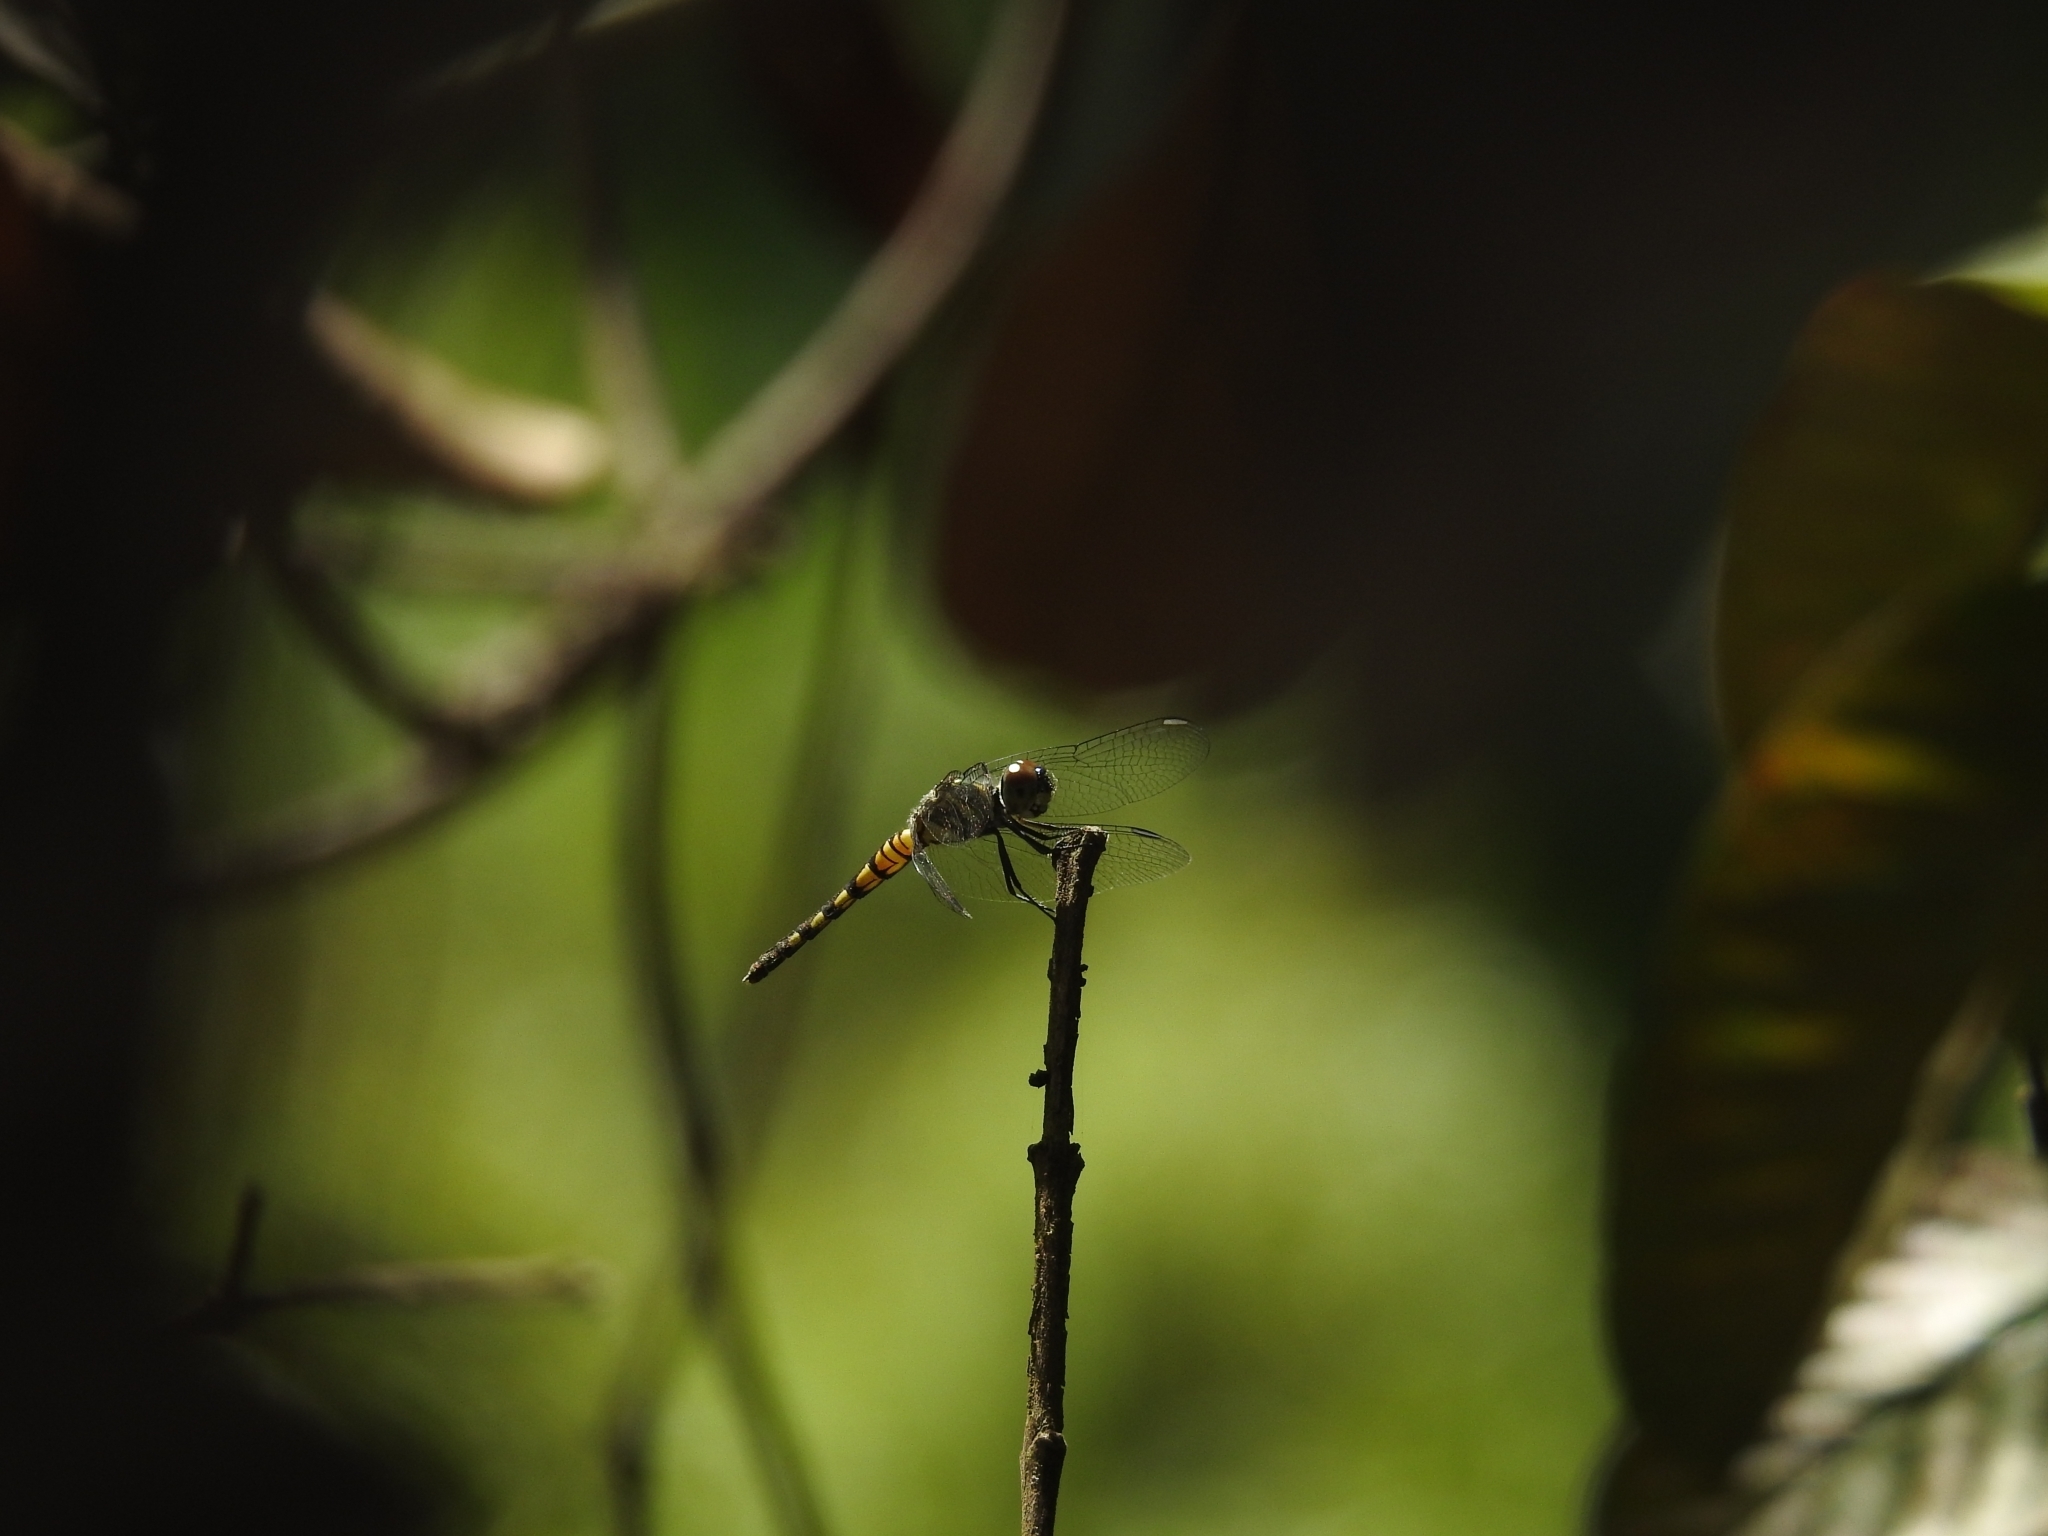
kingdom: Animalia
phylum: Arthropoda
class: Insecta
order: Odonata
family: Libellulidae
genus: Brachydiplax
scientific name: Brachydiplax sobrina
